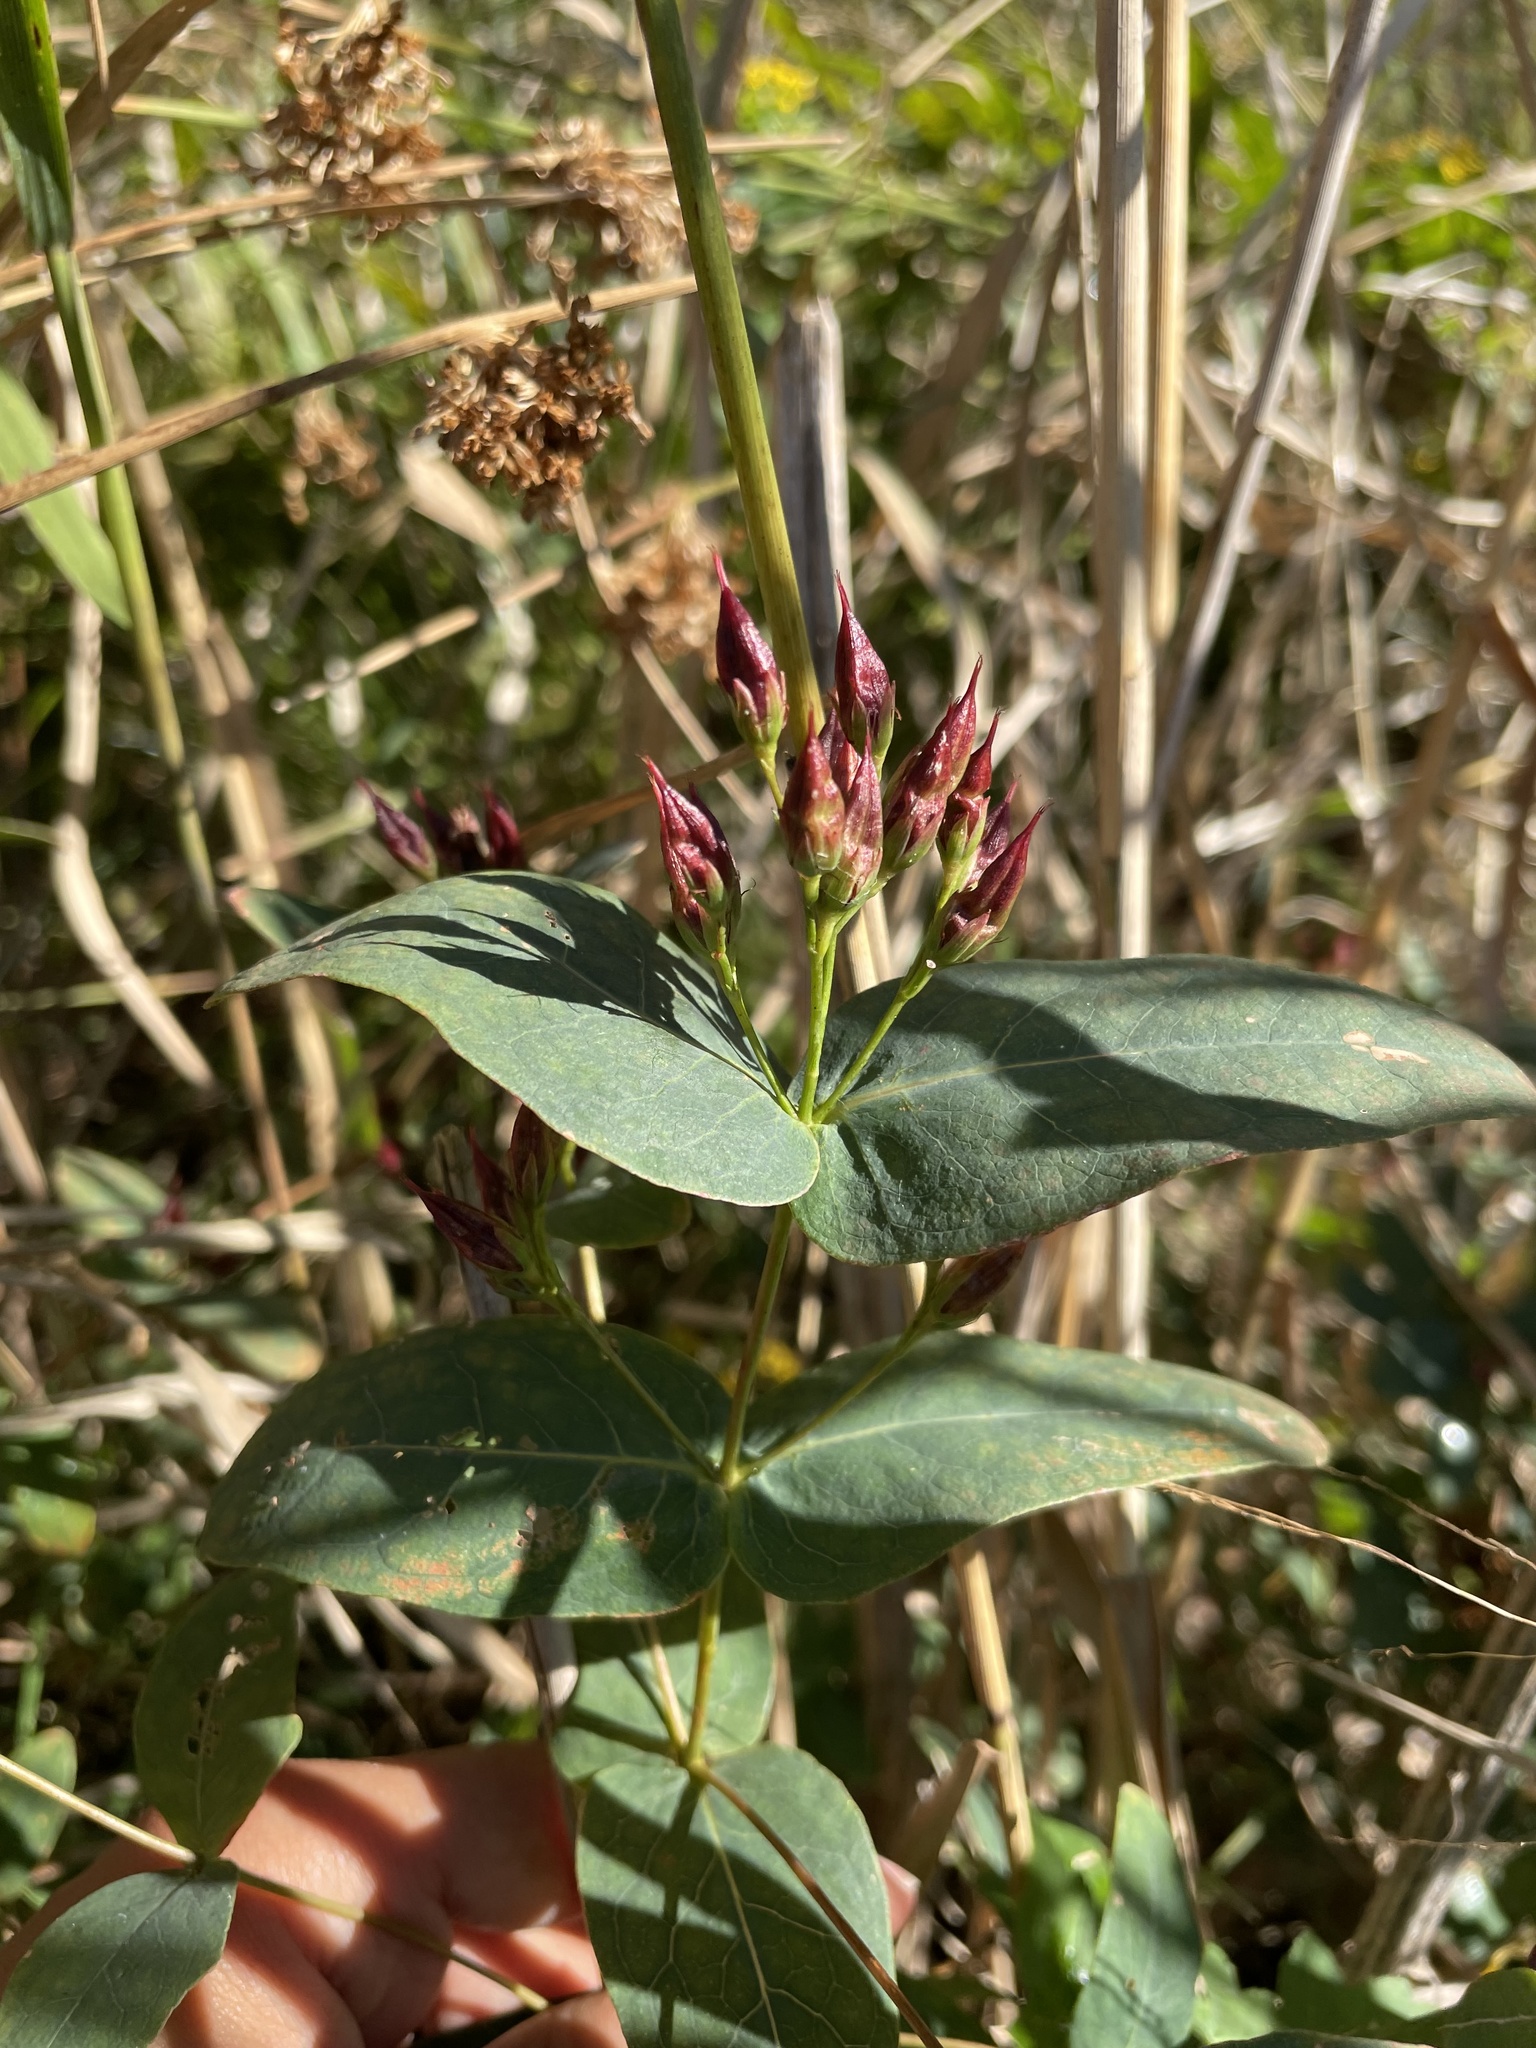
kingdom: Plantae
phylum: Tracheophyta
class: Magnoliopsida
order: Malpighiales
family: Hypericaceae
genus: Triadenum
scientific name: Triadenum virginicum
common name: Marsh st. john's-wort
